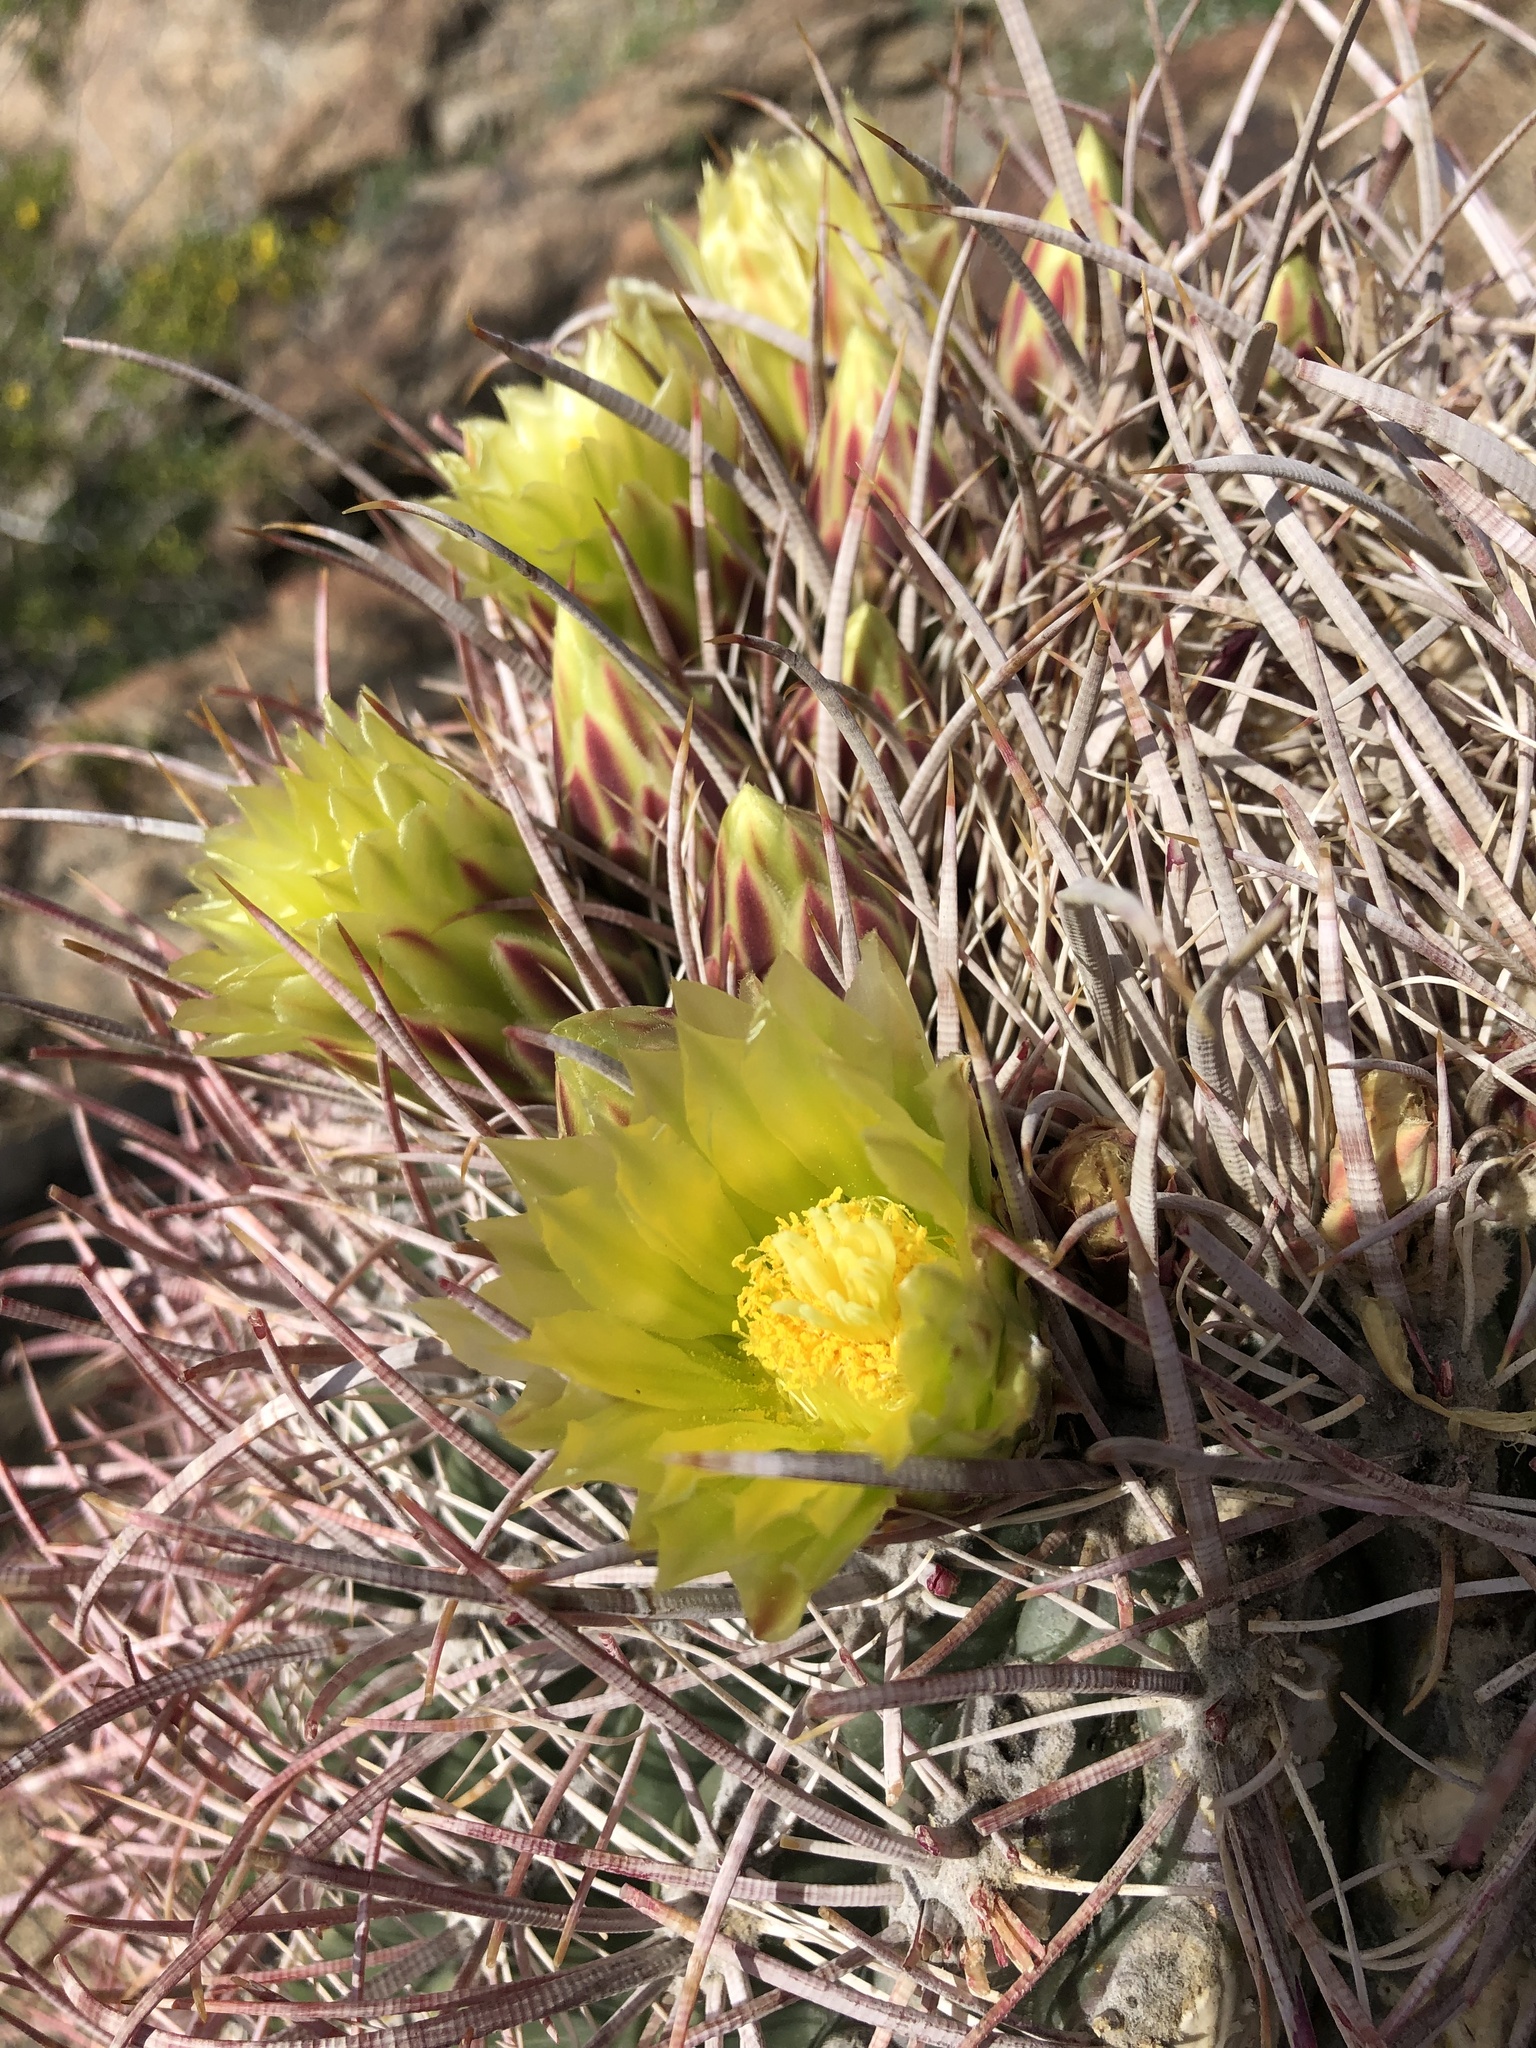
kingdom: Plantae
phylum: Tracheophyta
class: Magnoliopsida
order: Caryophyllales
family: Cactaceae
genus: Ferocactus
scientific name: Ferocactus cylindraceus
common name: California barrel cactus
